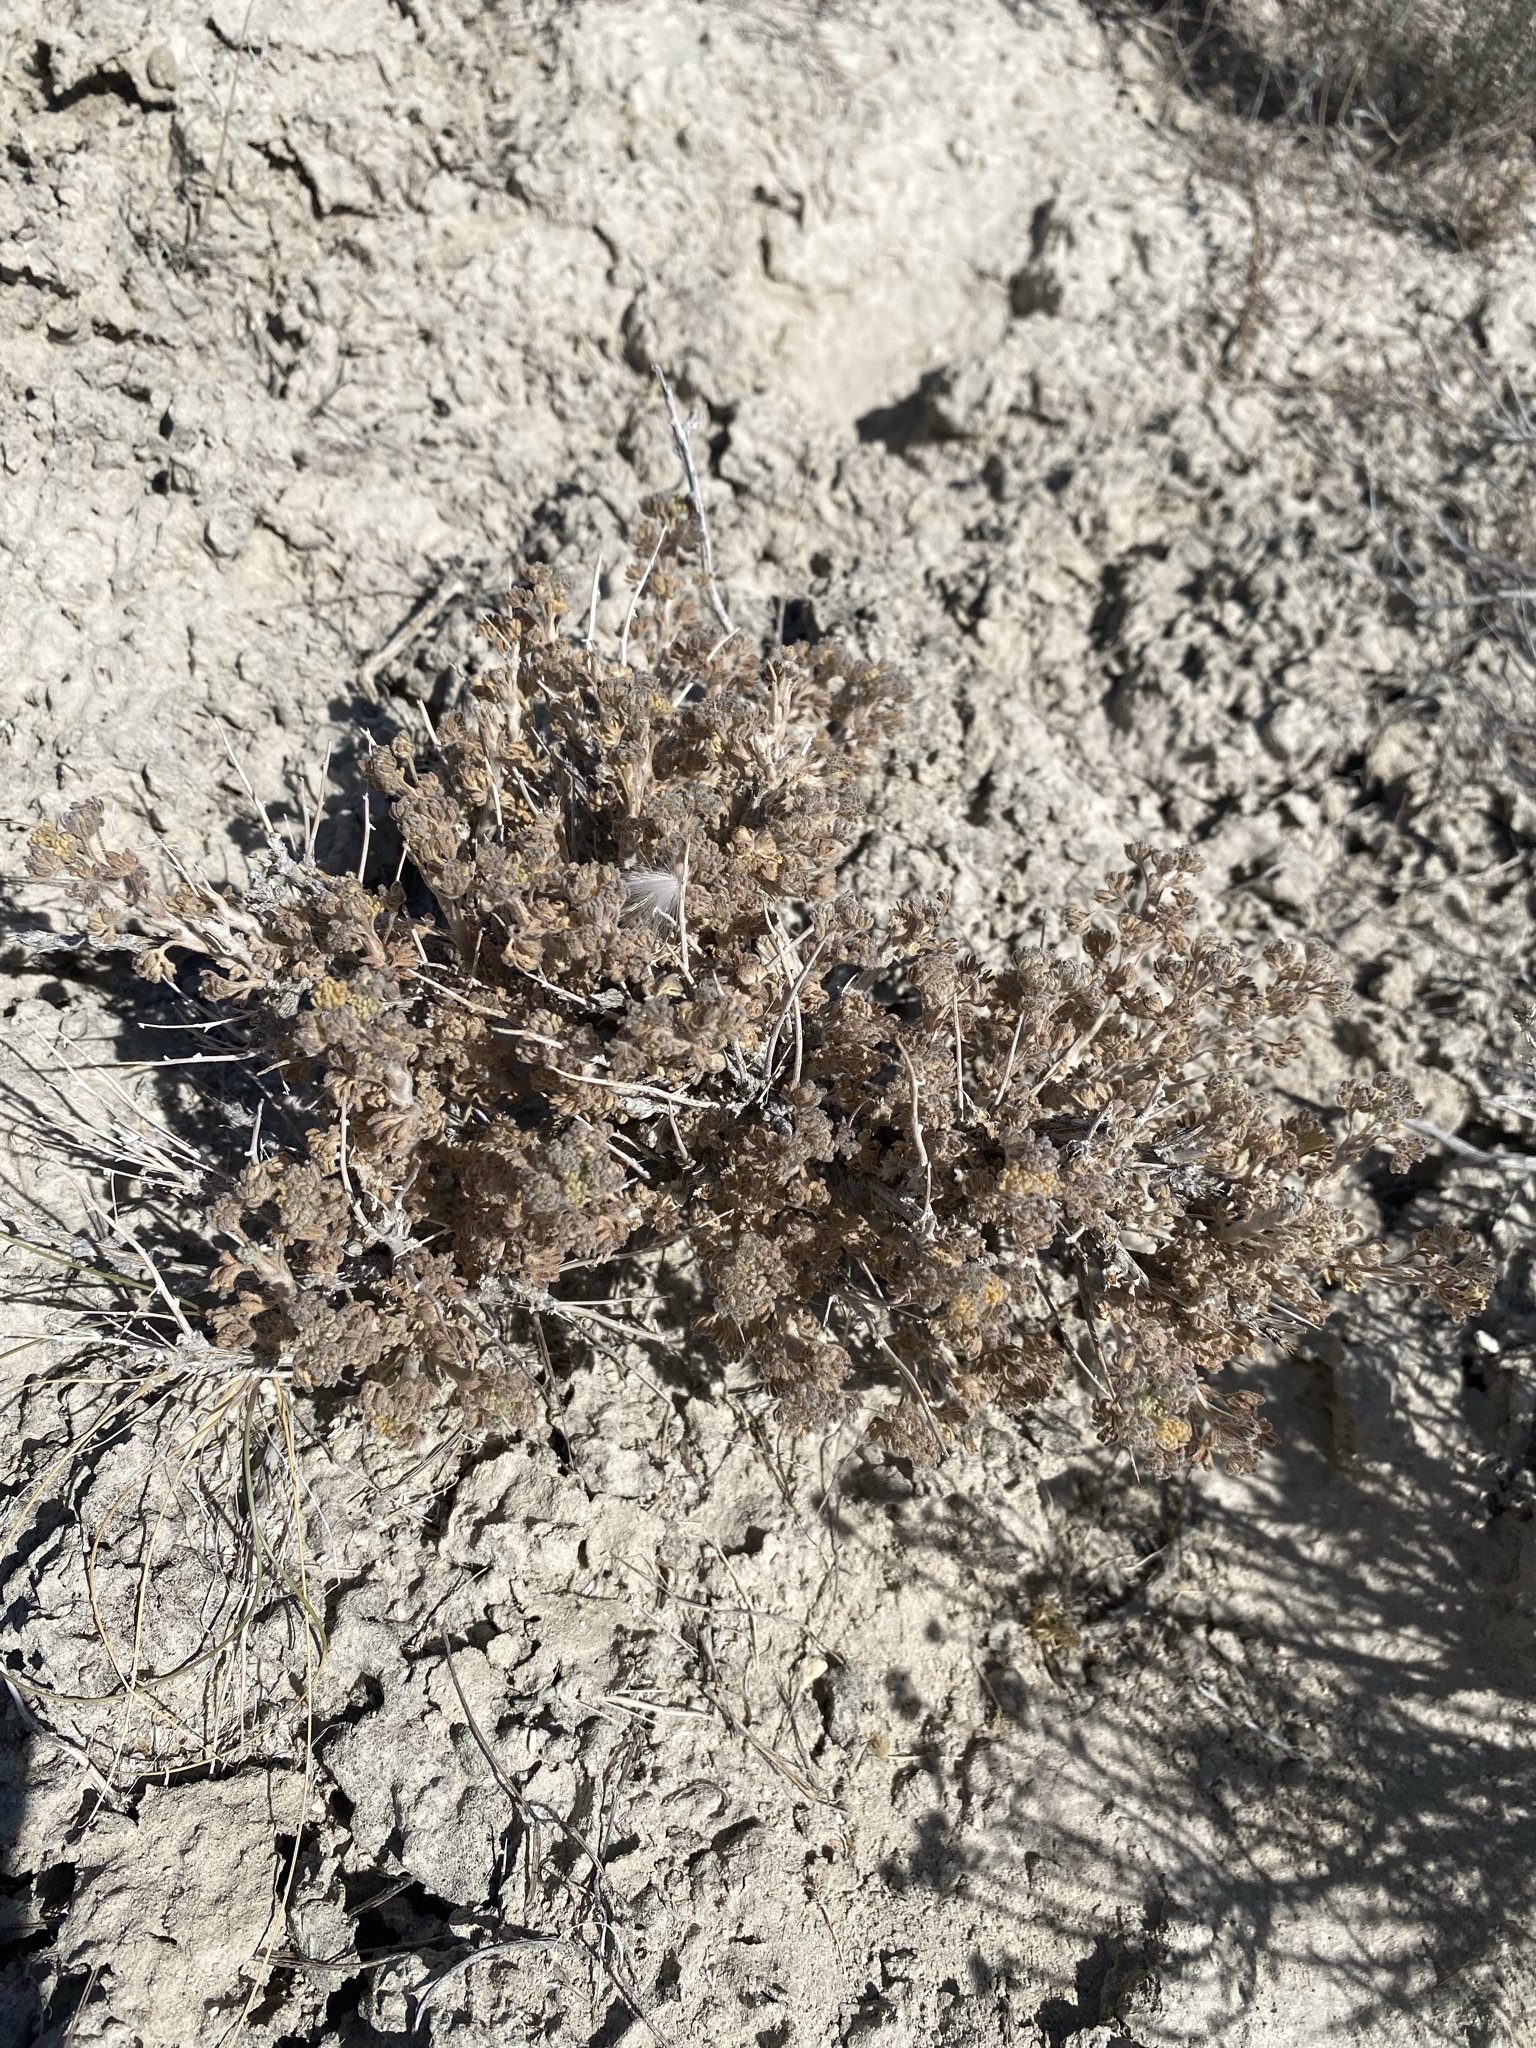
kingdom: Plantae
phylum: Tracheophyta
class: Magnoliopsida
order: Asterales
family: Asteraceae
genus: Artemisia
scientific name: Artemisia spinescens
